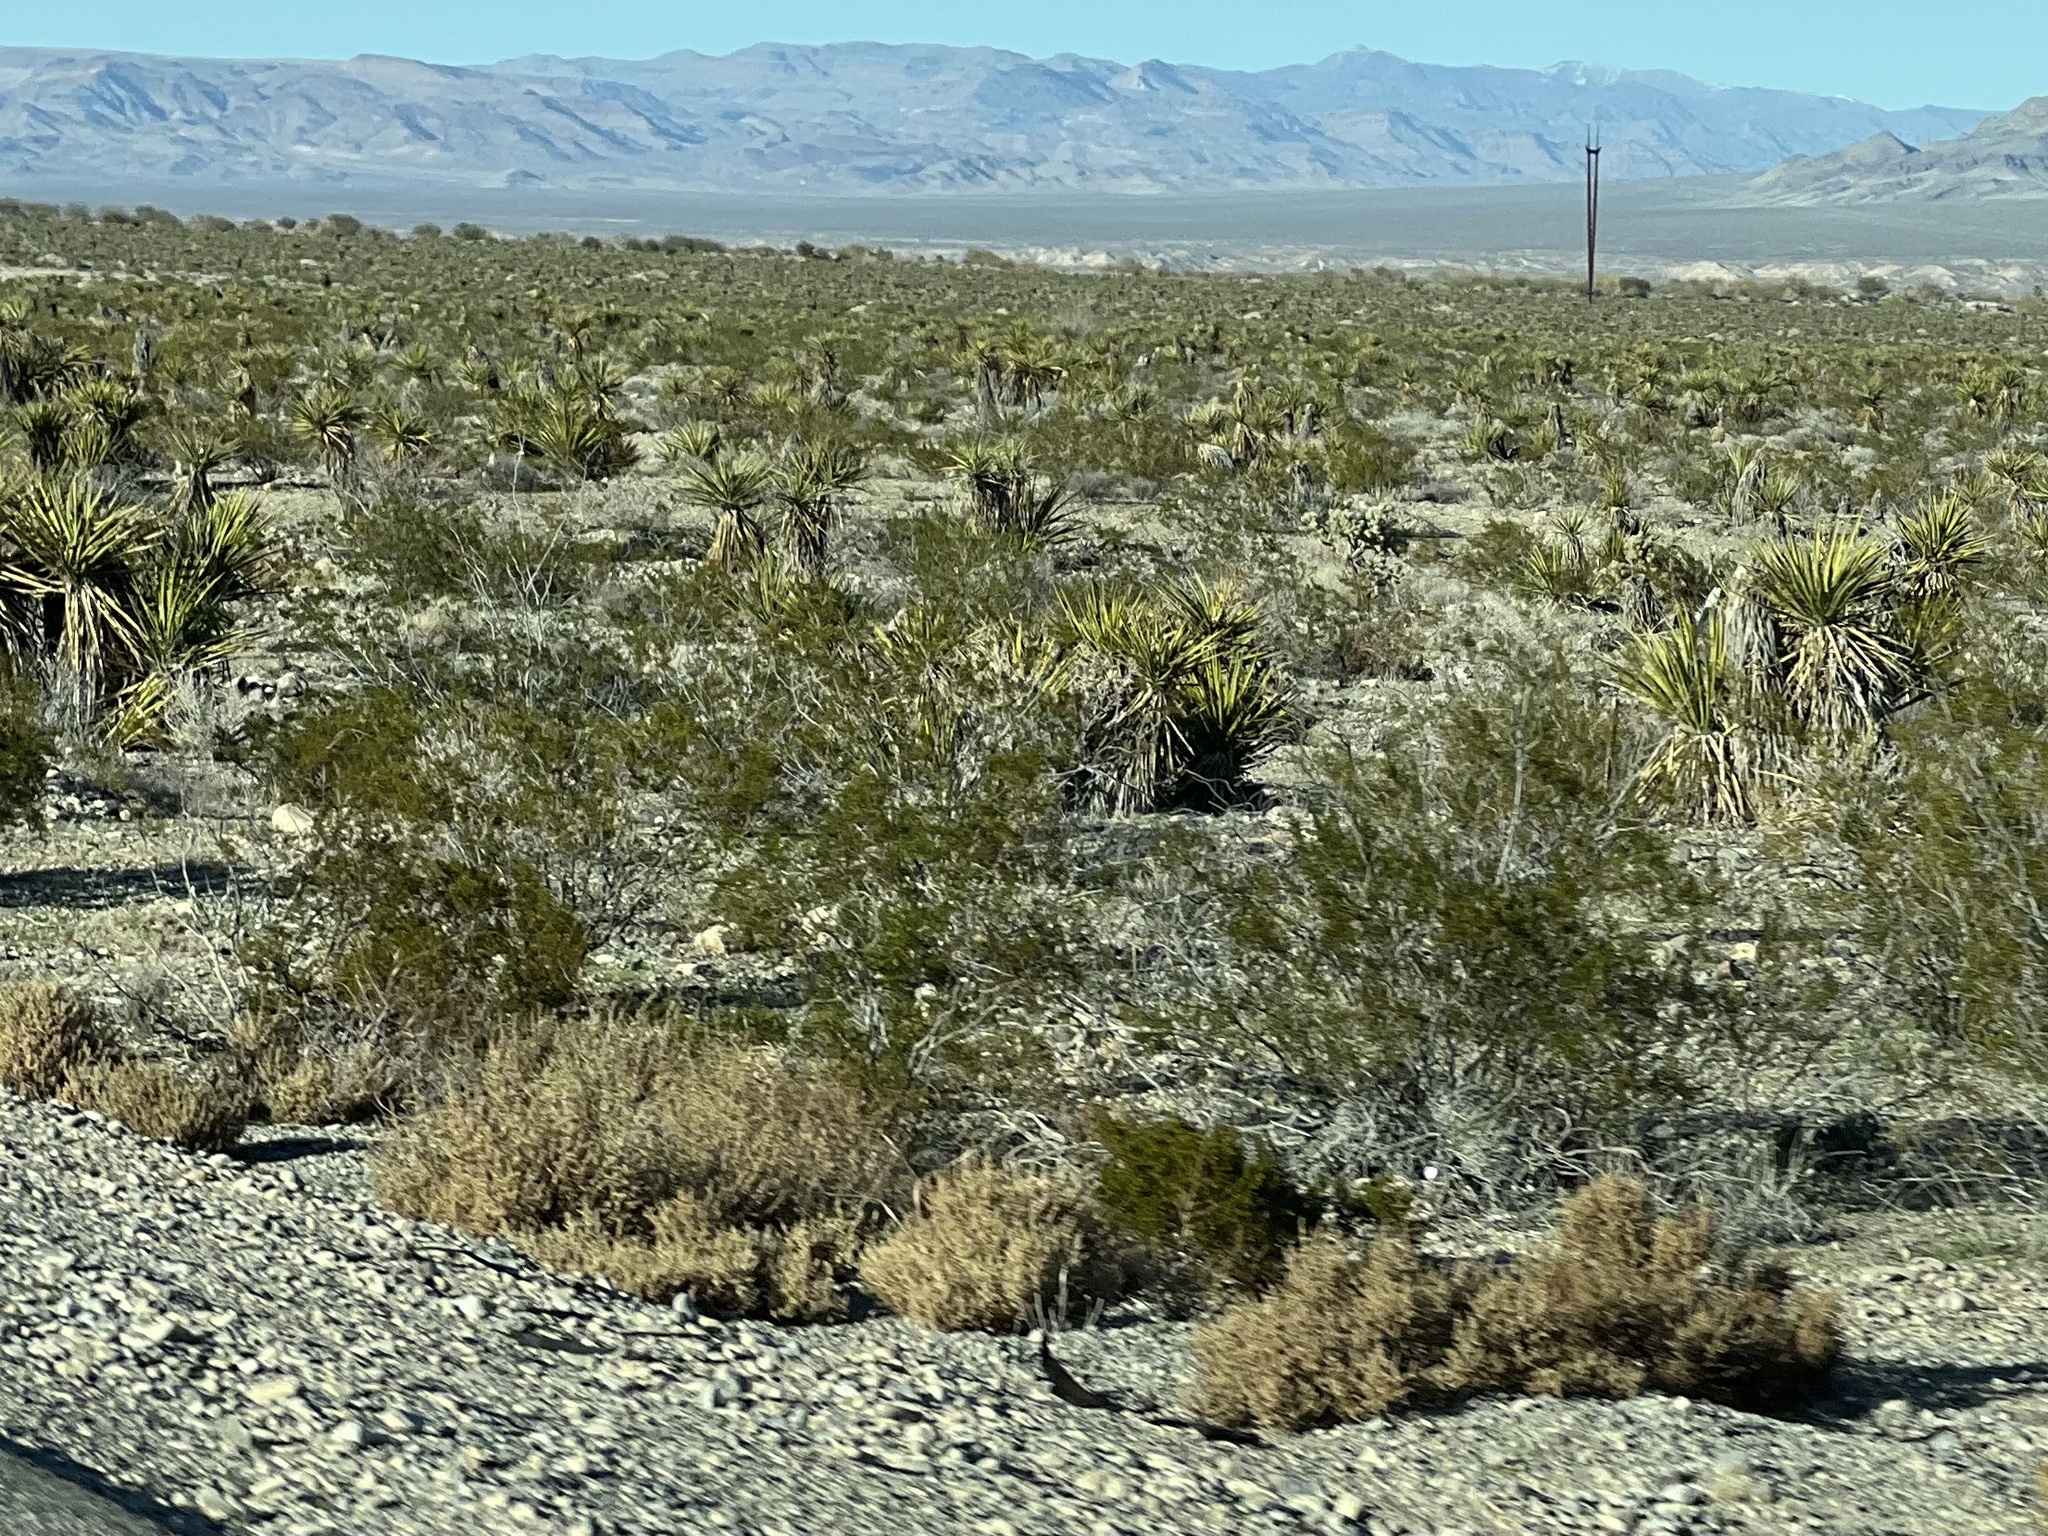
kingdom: Plantae
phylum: Tracheophyta
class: Magnoliopsida
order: Zygophyllales
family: Zygophyllaceae
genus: Larrea
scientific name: Larrea tridentata
